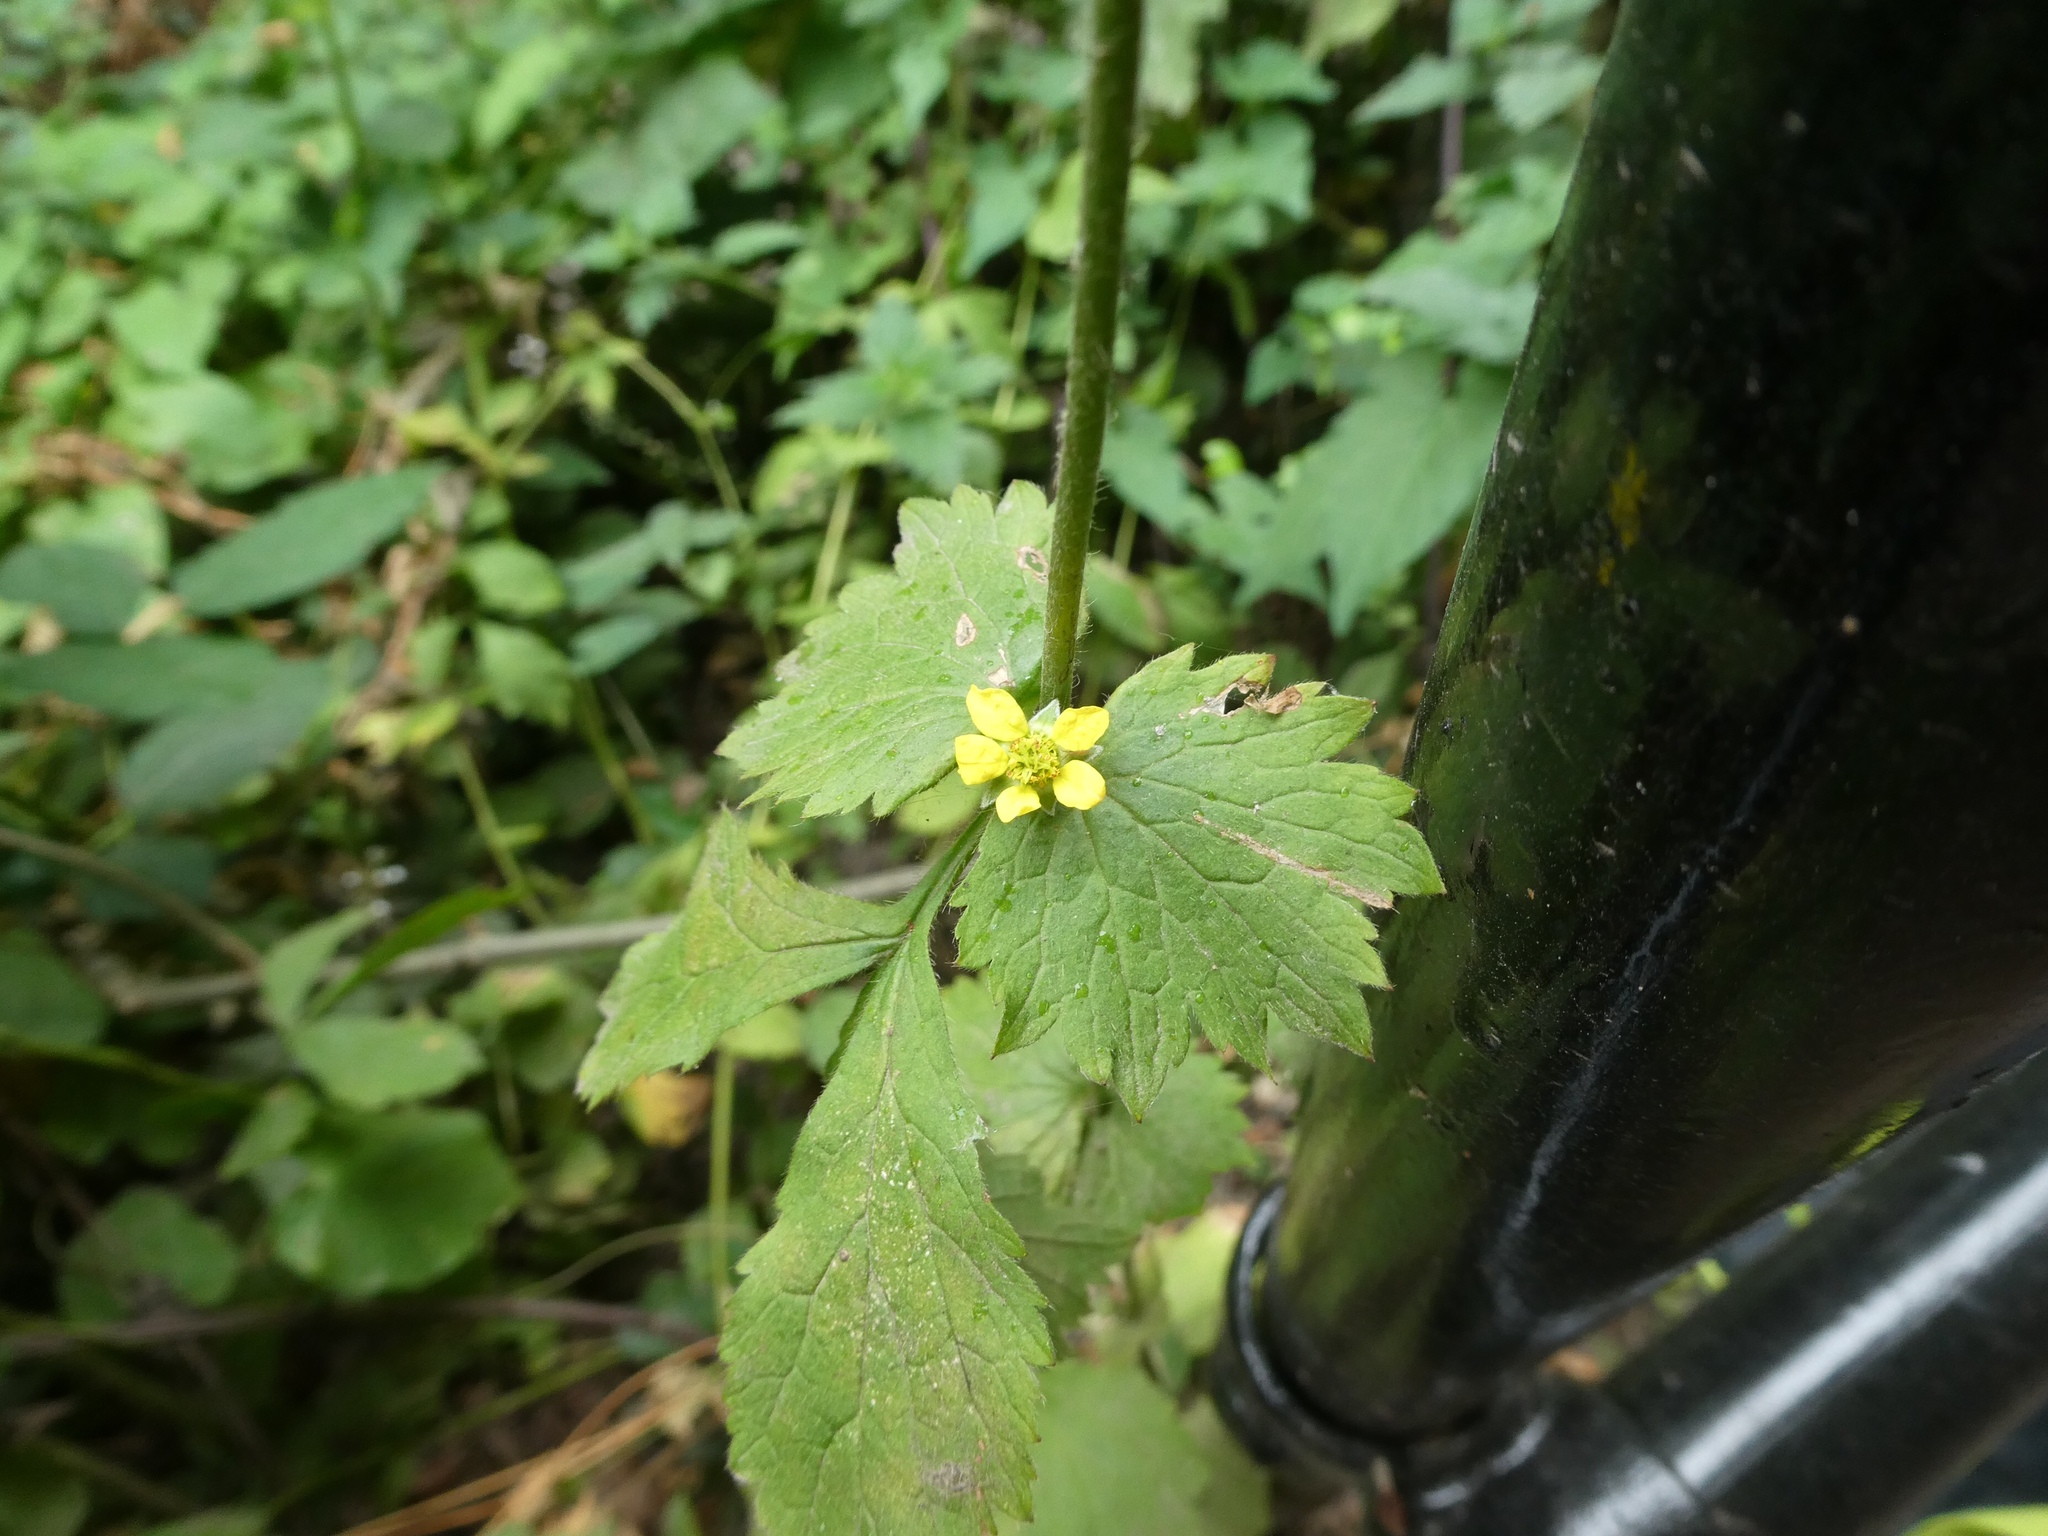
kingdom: Plantae
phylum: Tracheophyta
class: Magnoliopsida
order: Rosales
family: Rosaceae
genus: Geum
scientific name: Geum urbanum
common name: Wood avens
